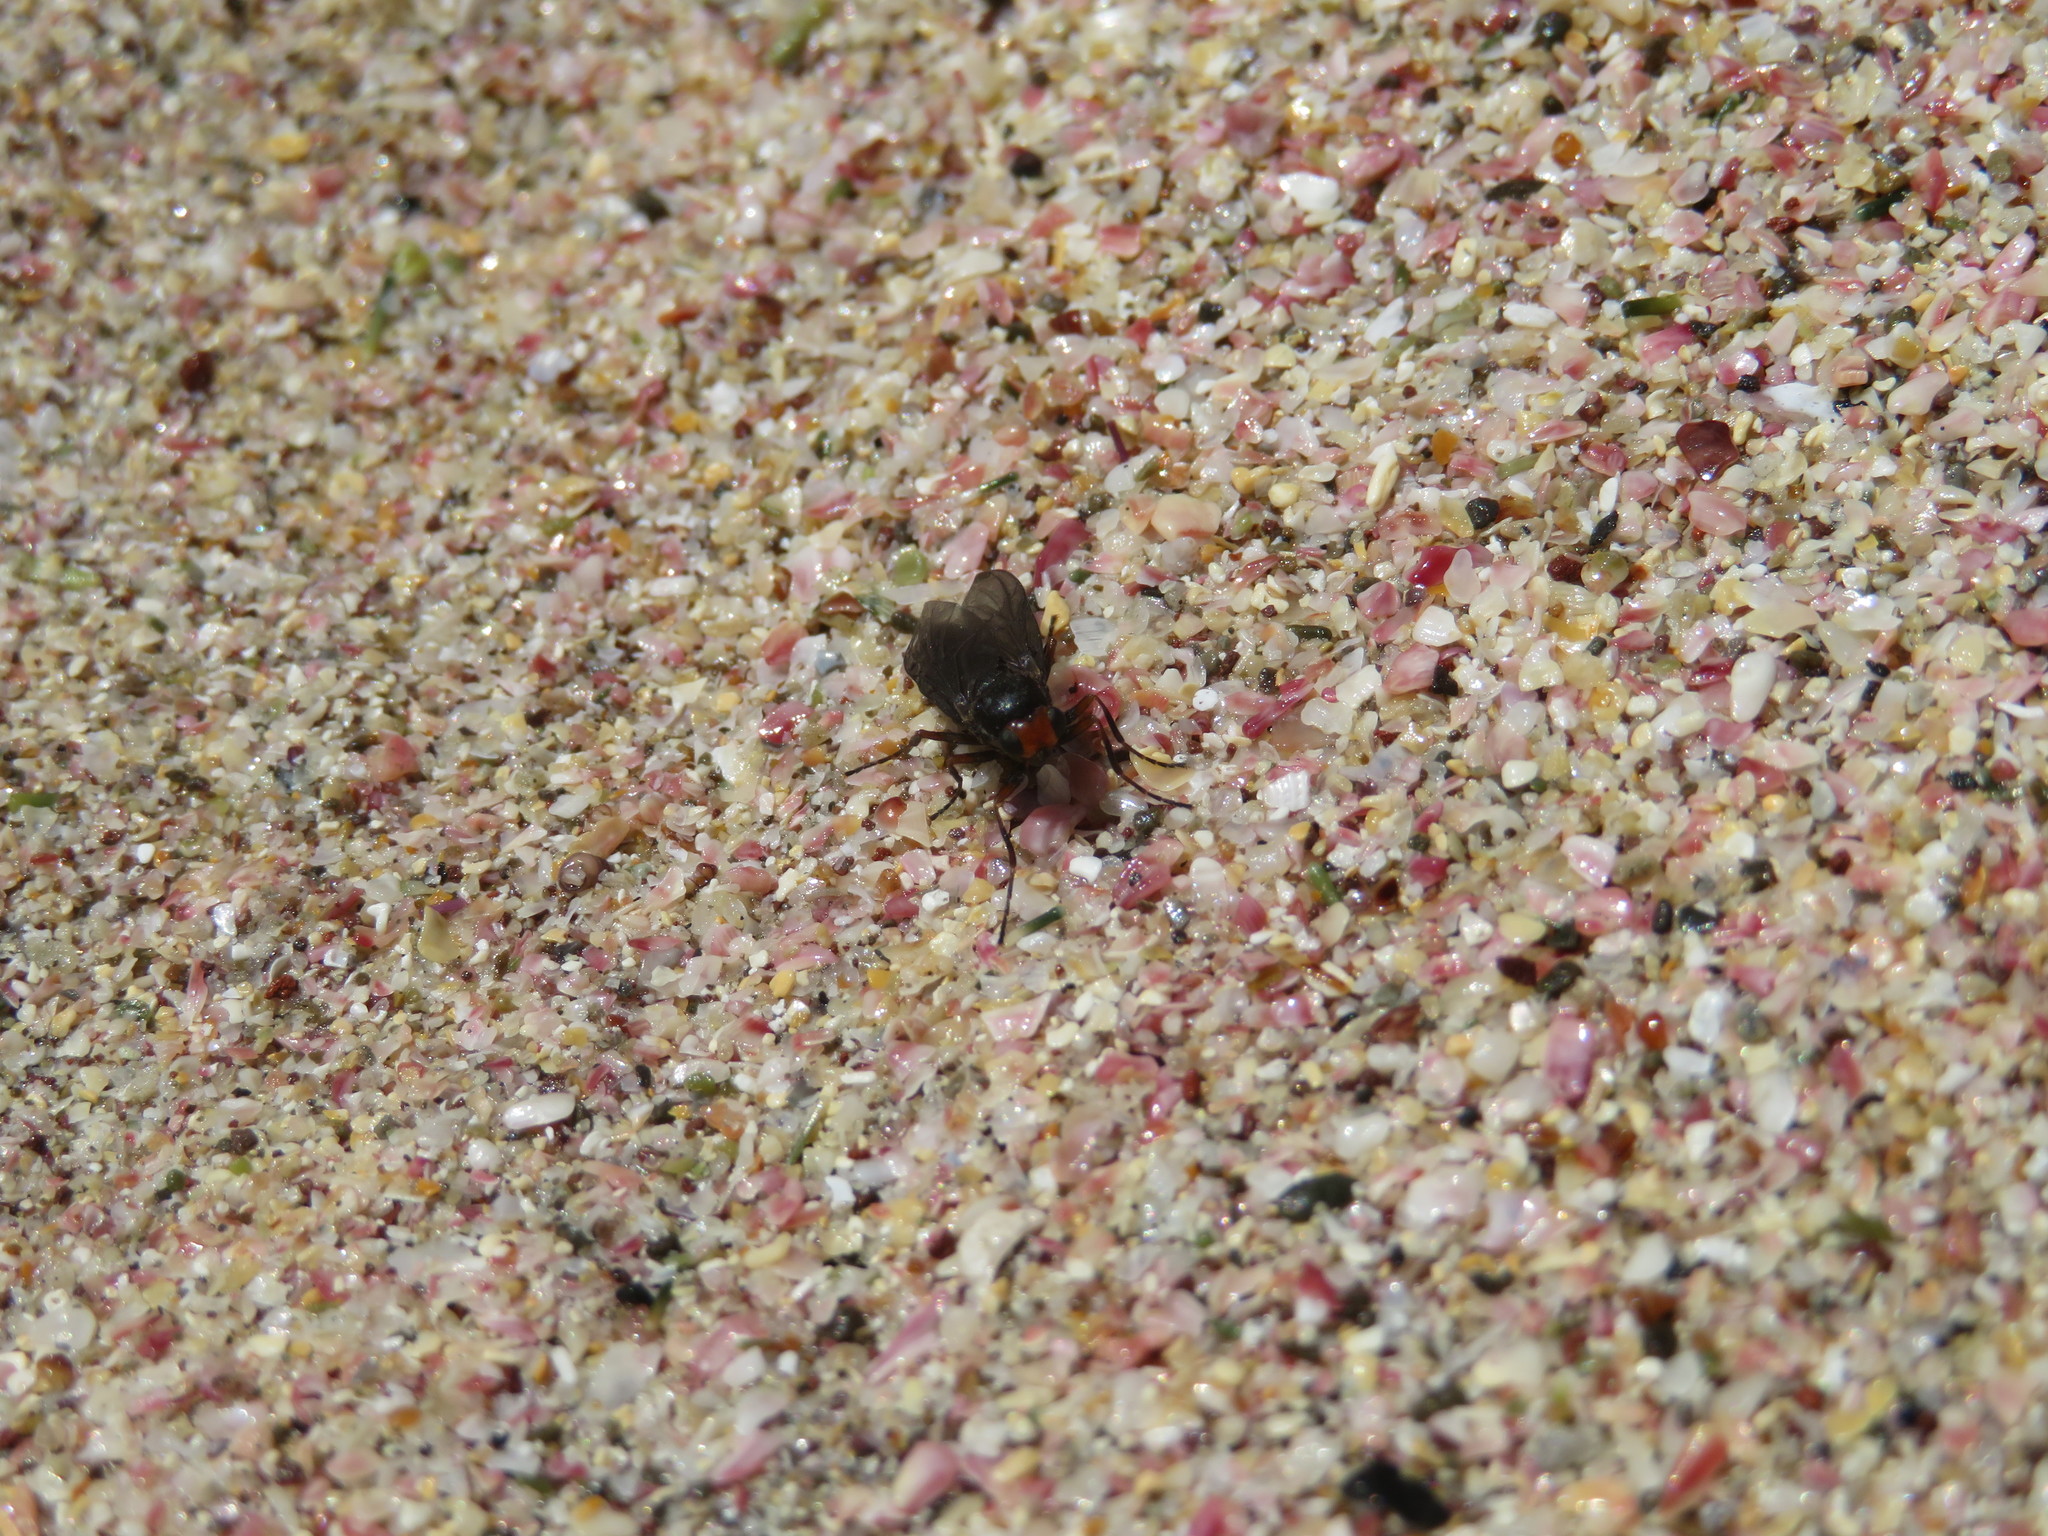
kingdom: Animalia
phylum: Arthropoda
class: Insecta
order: Diptera
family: Stratiomyidae
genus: Inopus
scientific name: Inopus rubriceps
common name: Soldier fly
